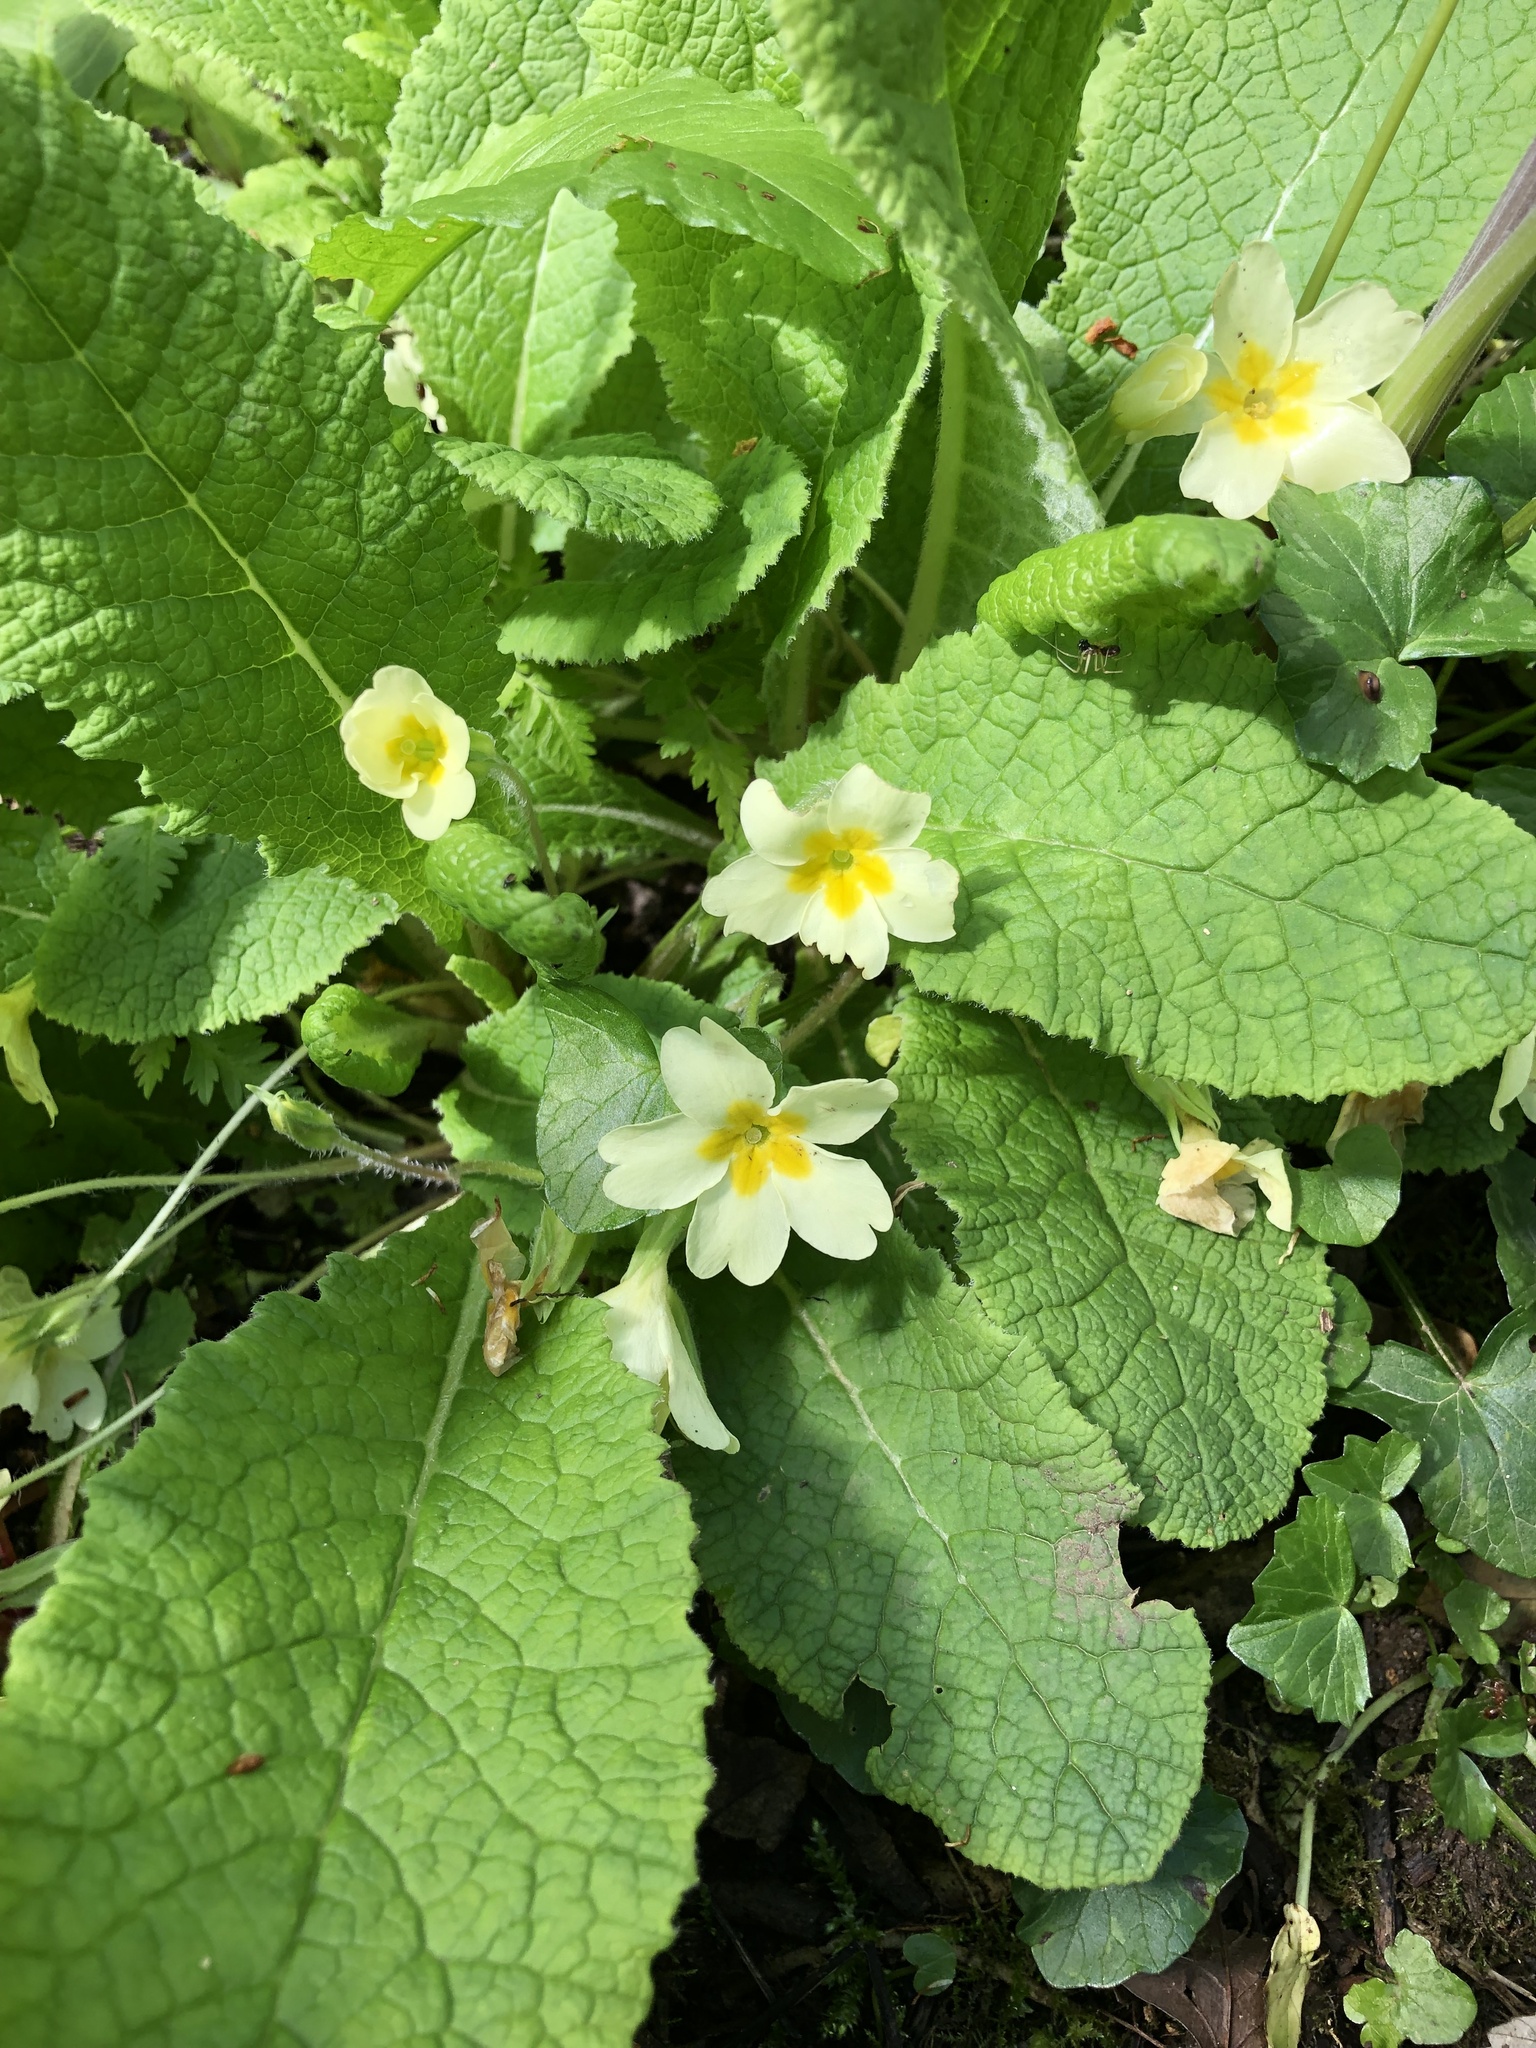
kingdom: Plantae
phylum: Tracheophyta
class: Magnoliopsida
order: Ericales
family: Primulaceae
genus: Primula
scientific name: Primula vulgaris
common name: Primrose
